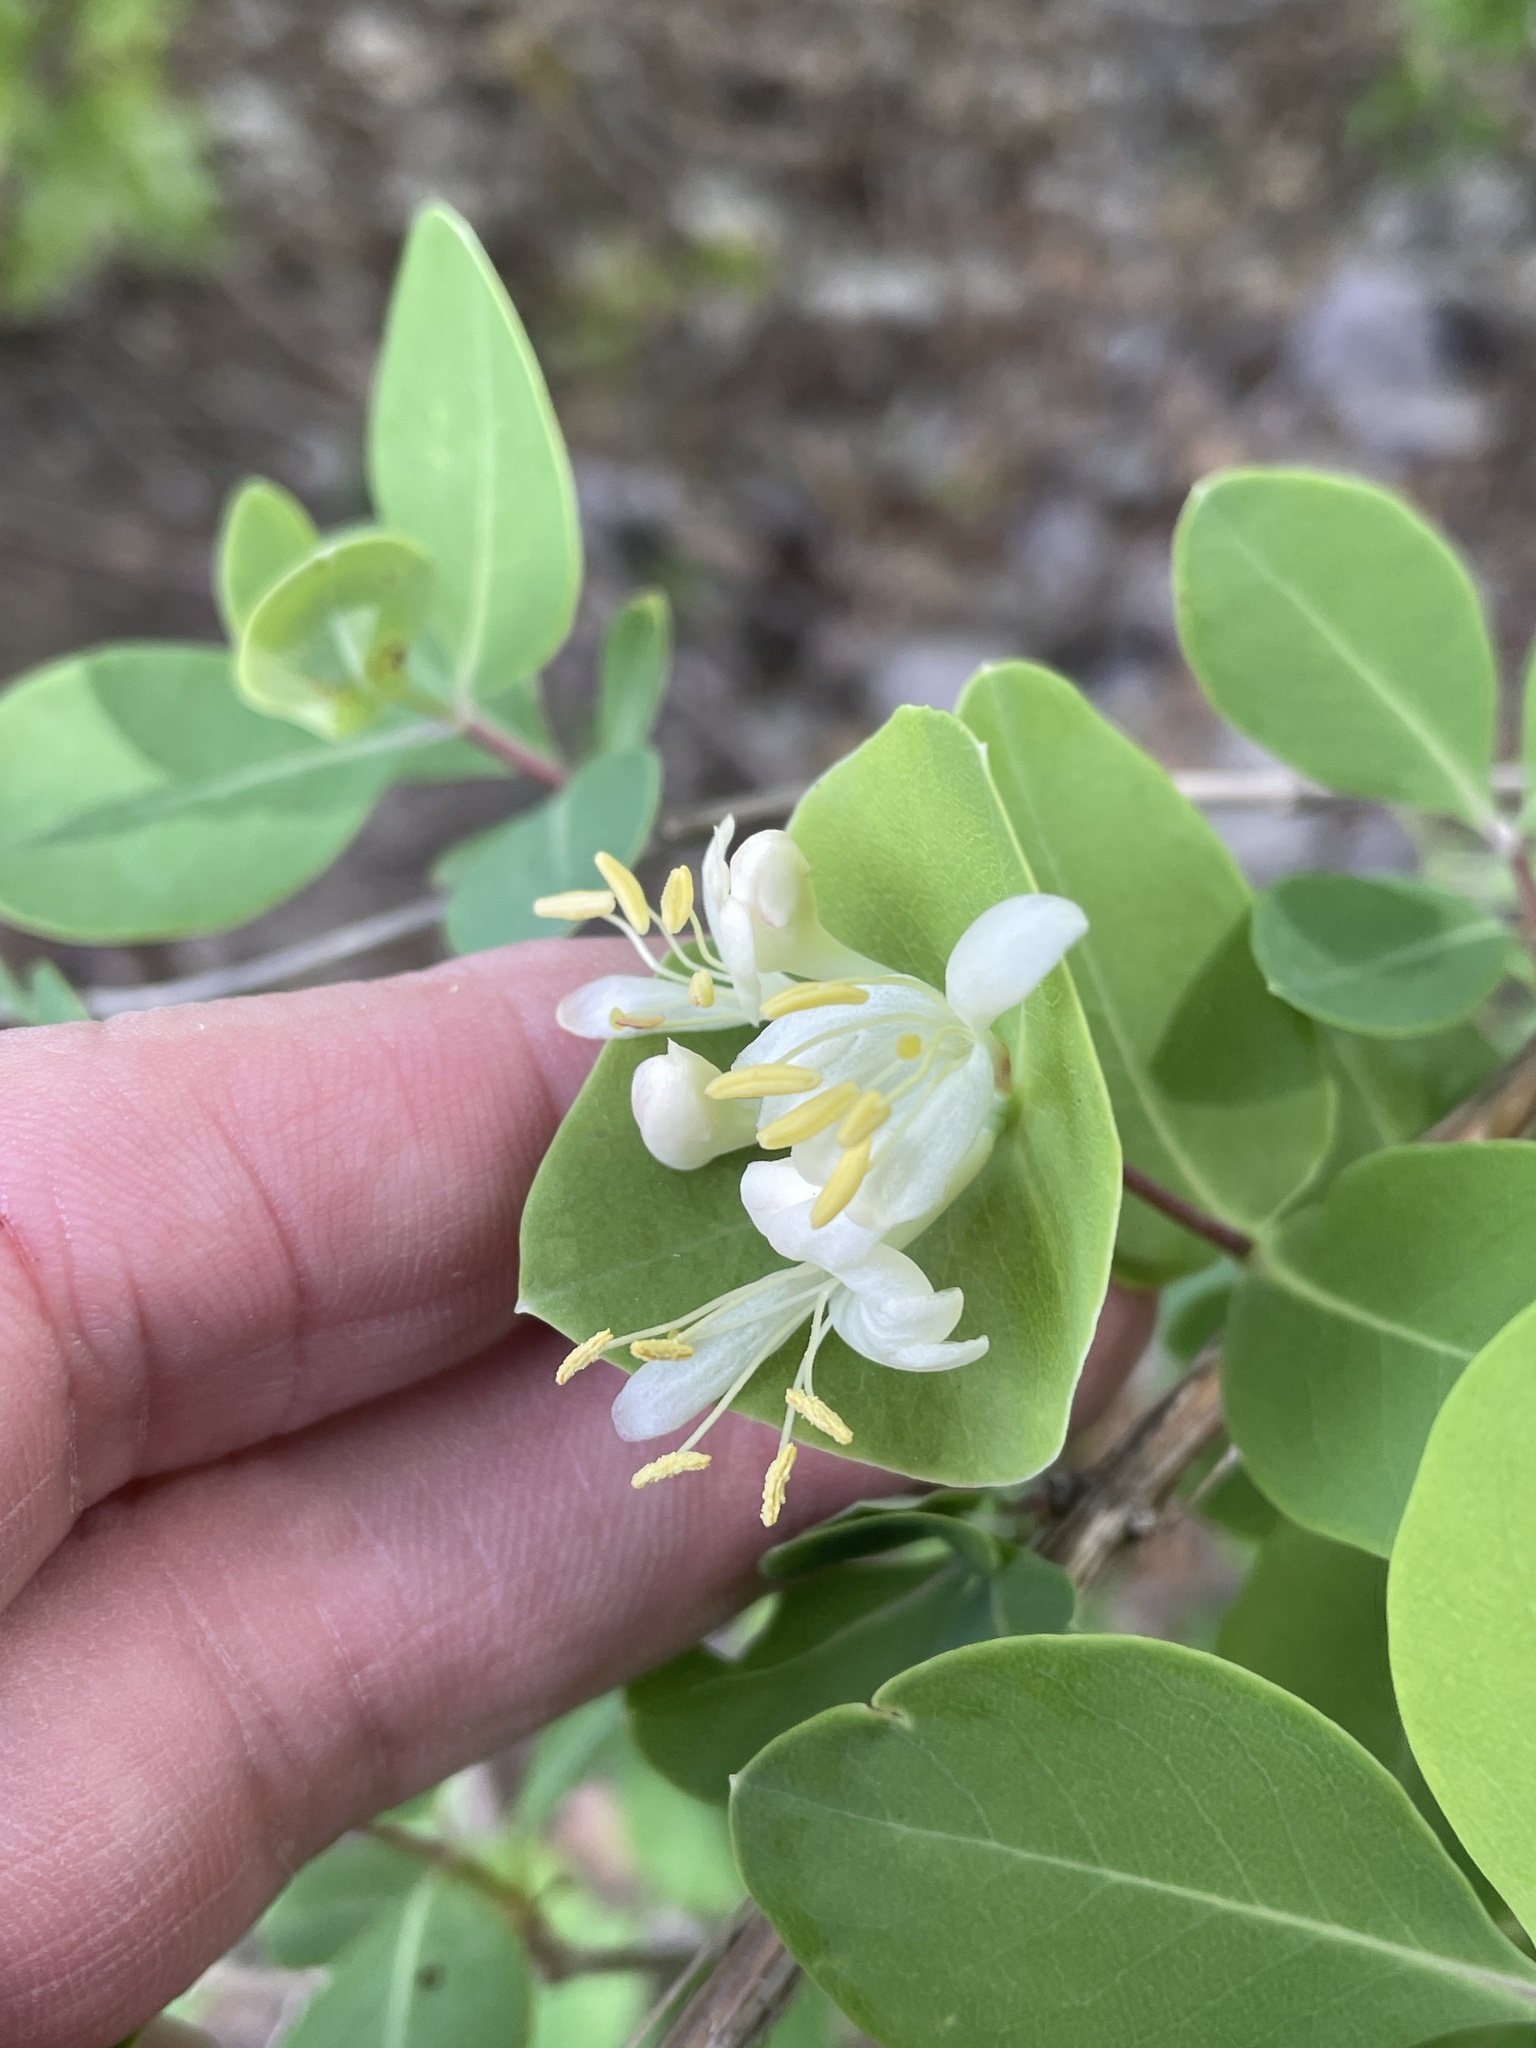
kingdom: Plantae
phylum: Tracheophyta
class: Magnoliopsida
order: Dipsacales
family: Caprifoliaceae
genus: Lonicera
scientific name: Lonicera albiflora
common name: White honeysuckle
